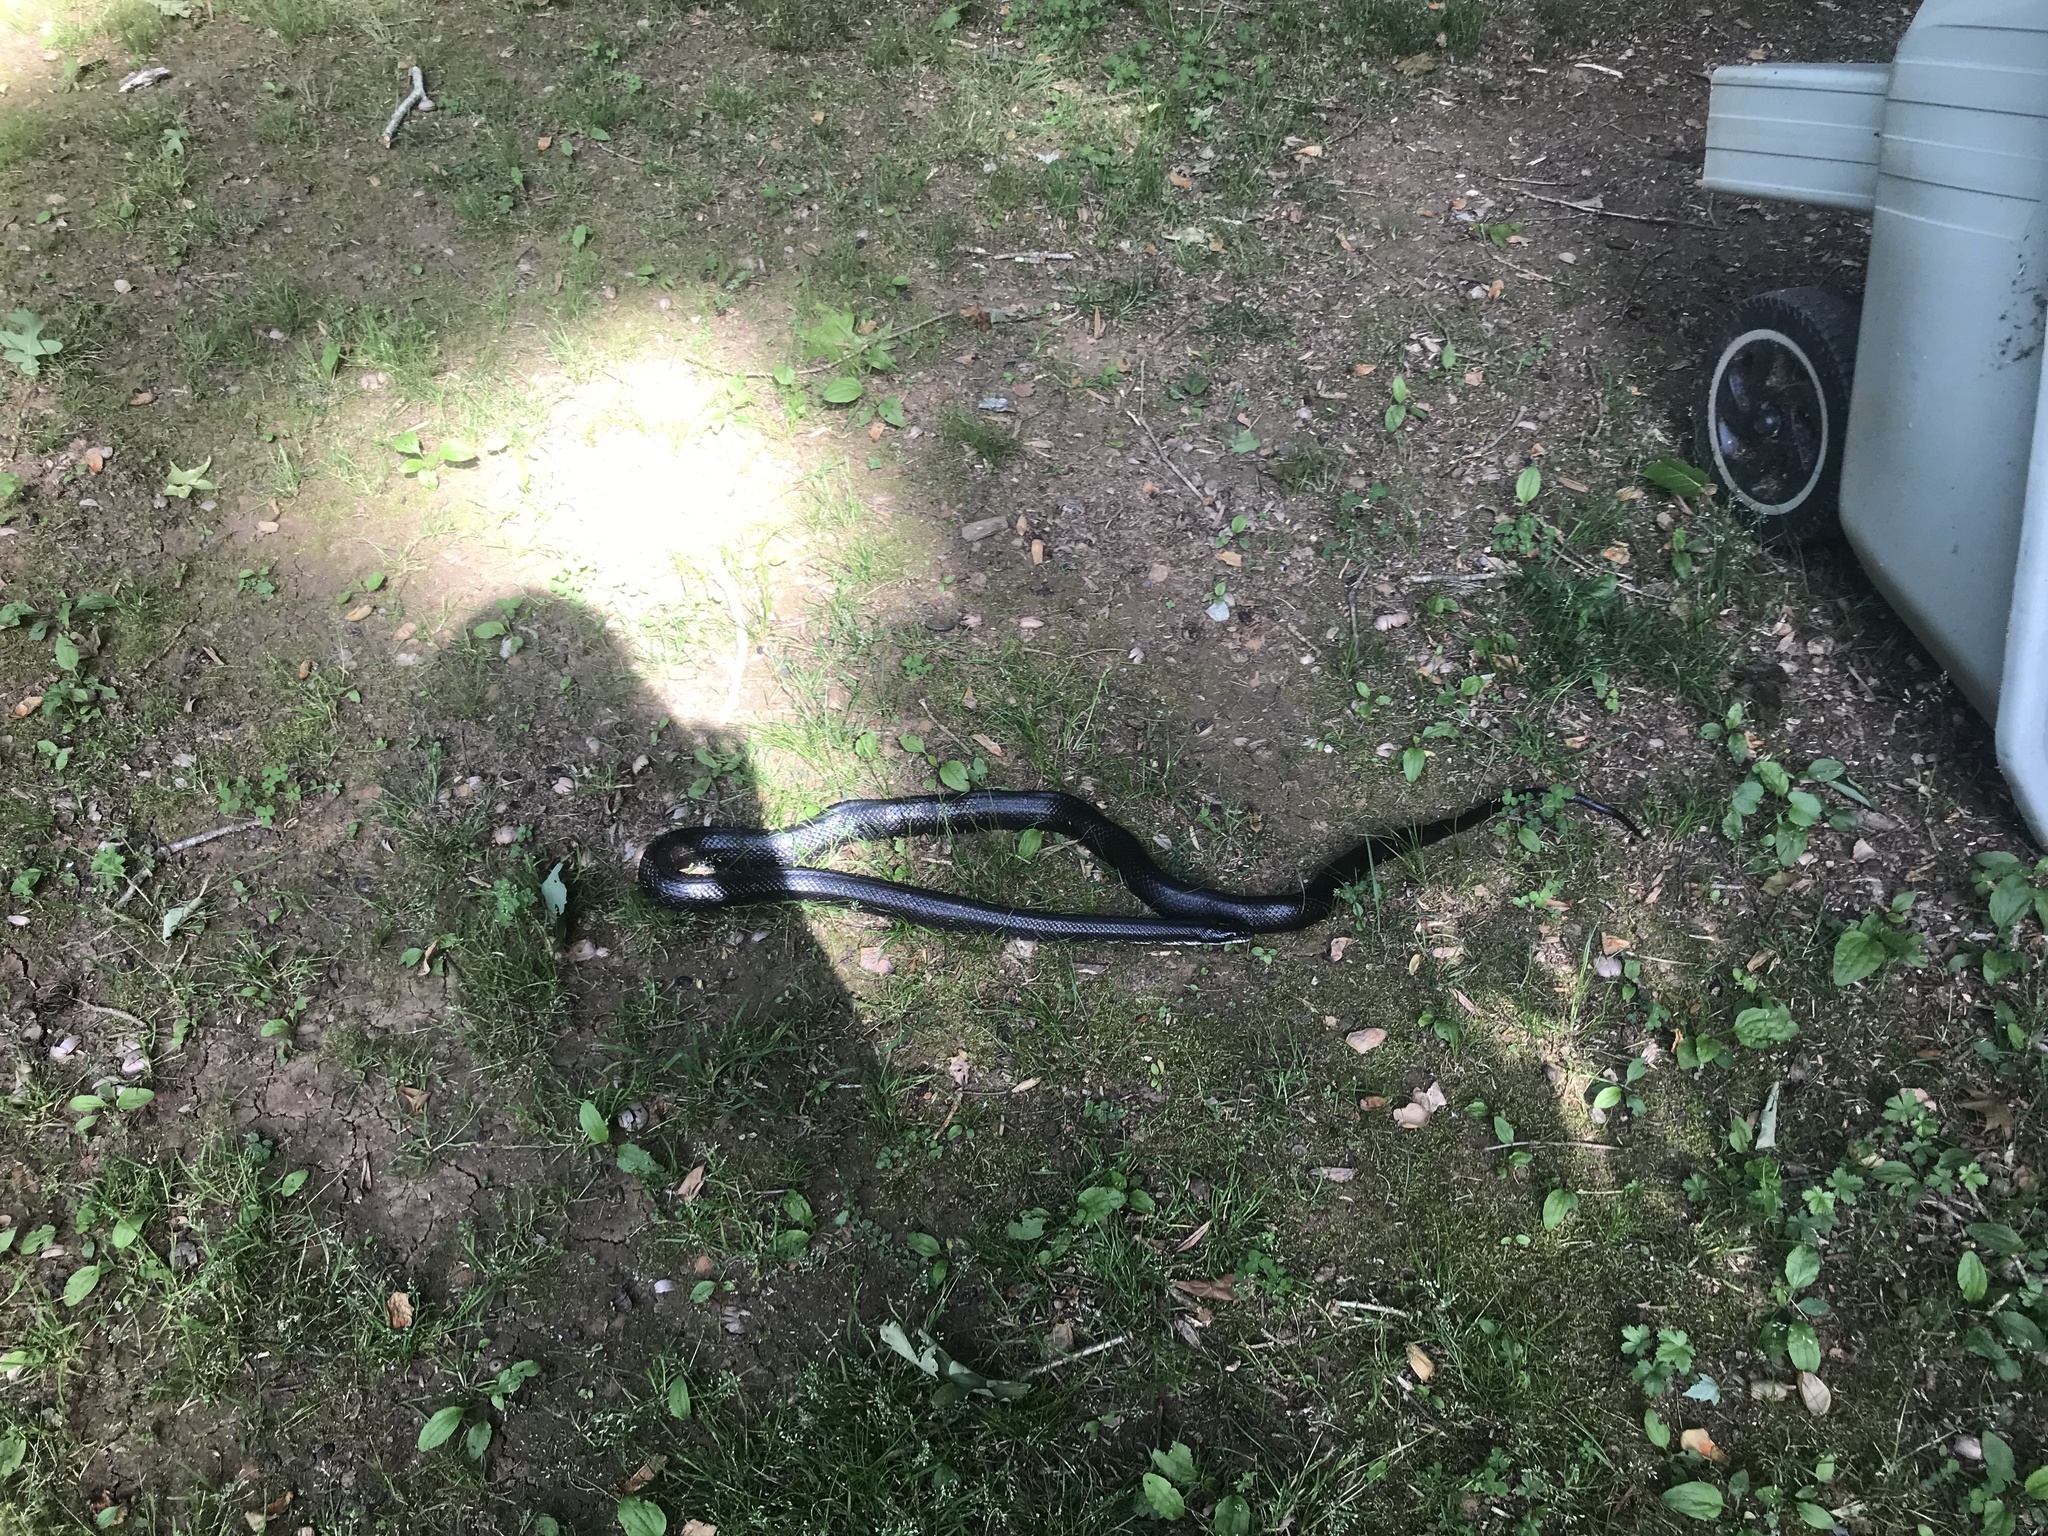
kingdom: Animalia
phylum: Chordata
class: Squamata
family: Colubridae
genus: Pantherophis
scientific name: Pantherophis alleghaniensis
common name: Eastern rat snake
